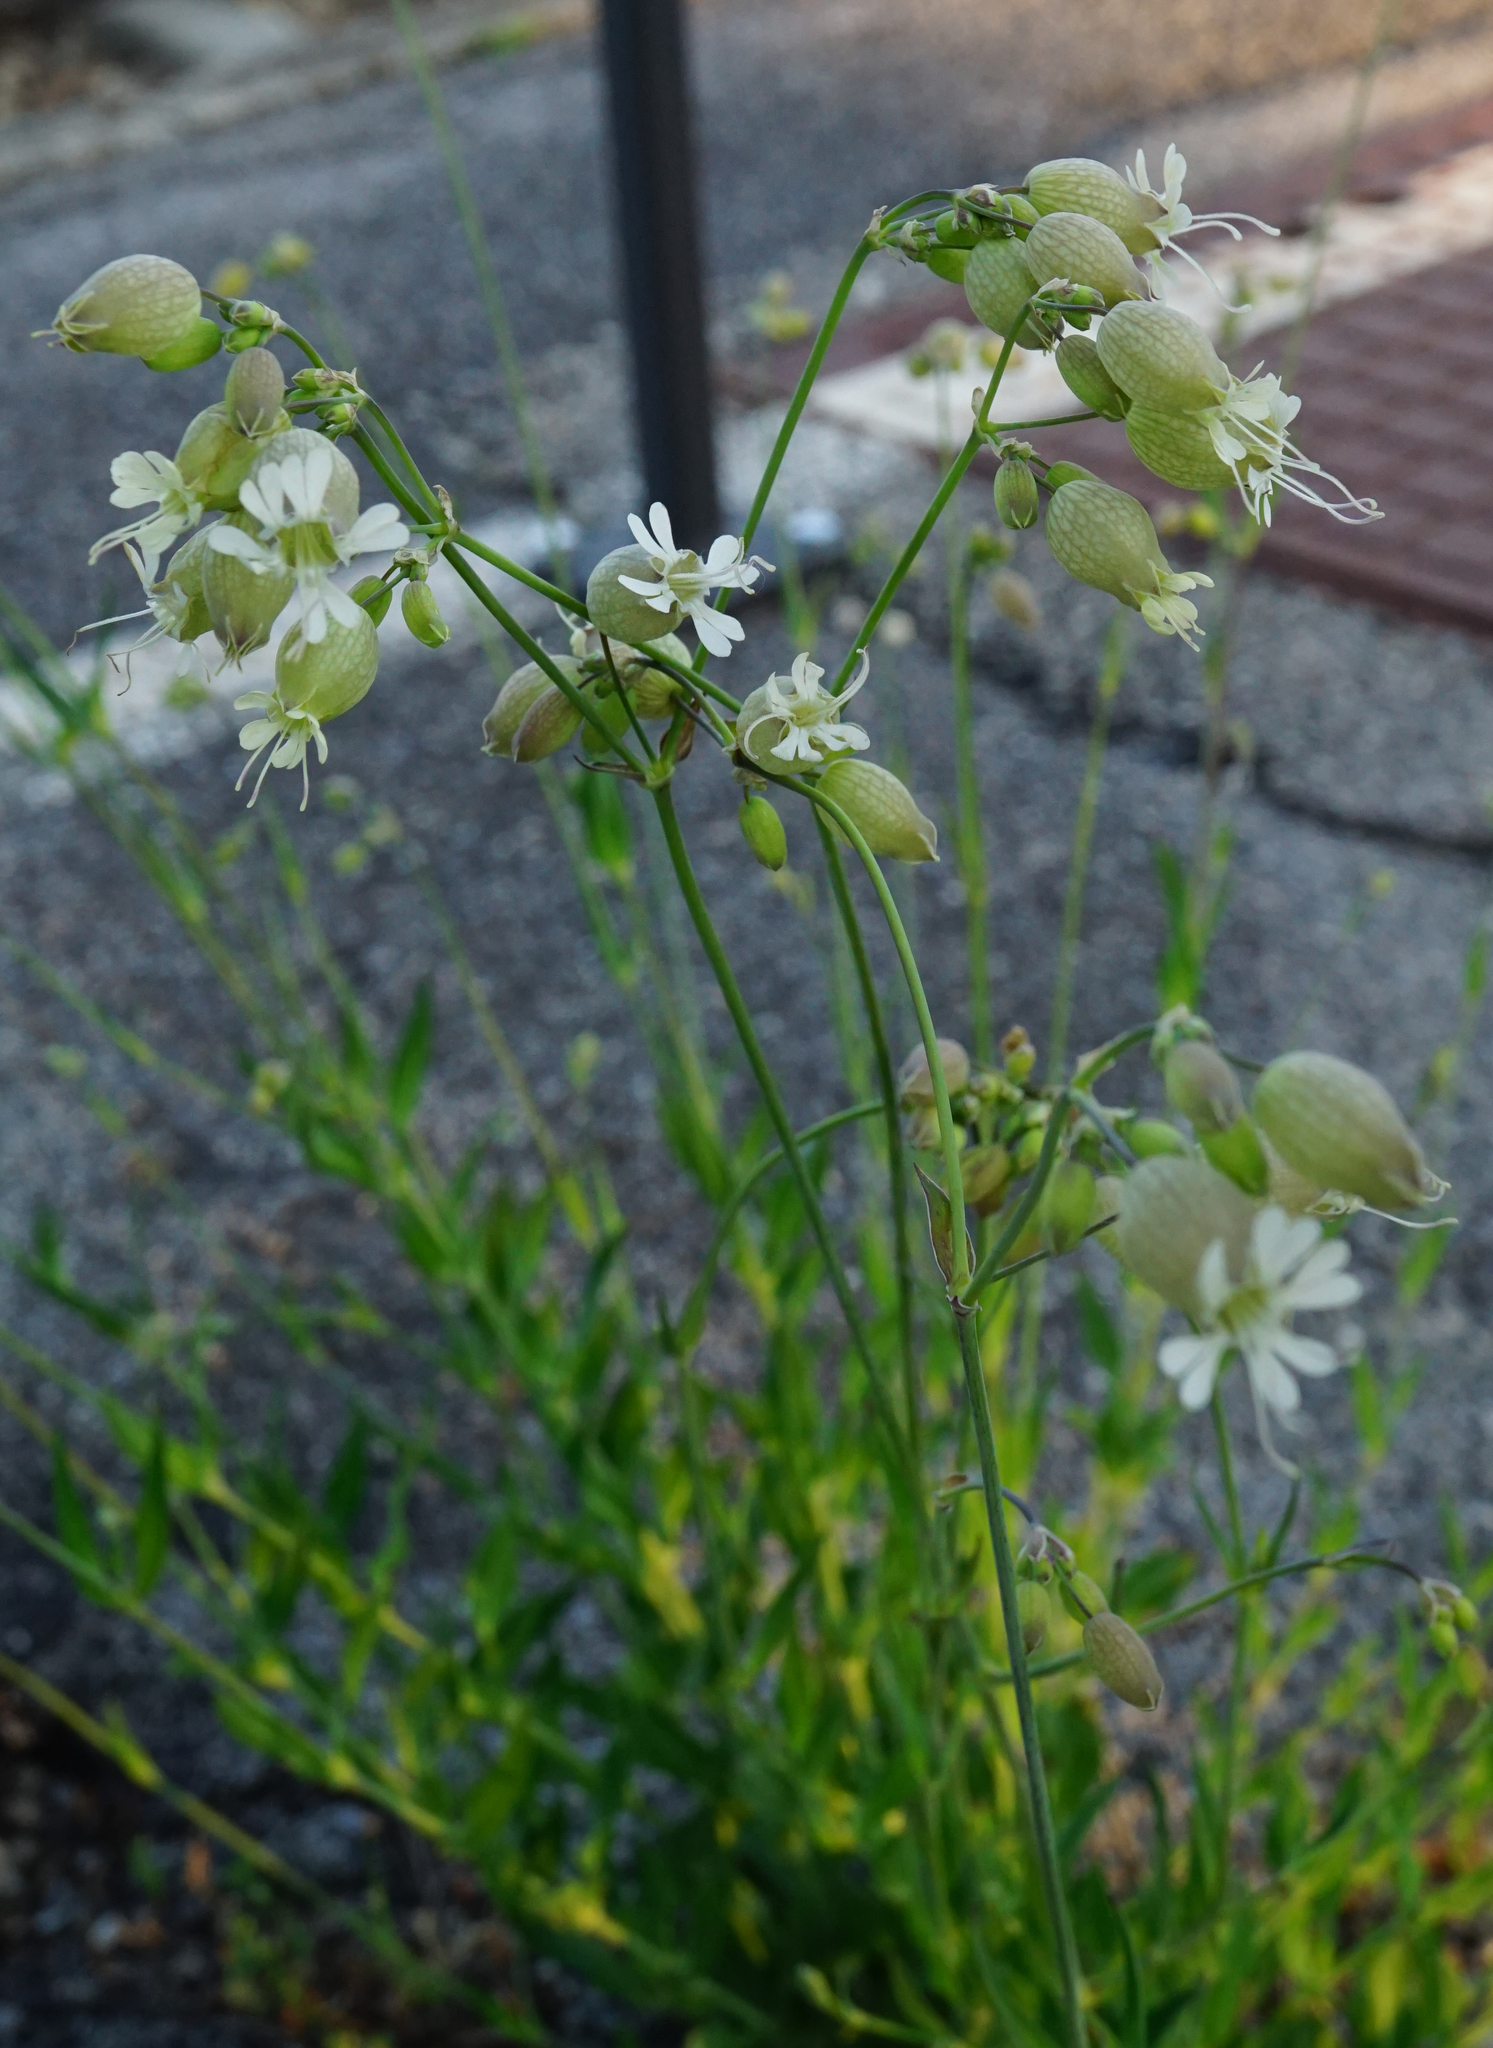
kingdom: Plantae
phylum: Tracheophyta
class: Magnoliopsida
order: Caryophyllales
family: Caryophyllaceae
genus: Silene
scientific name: Silene vulgaris
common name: Bladder campion
